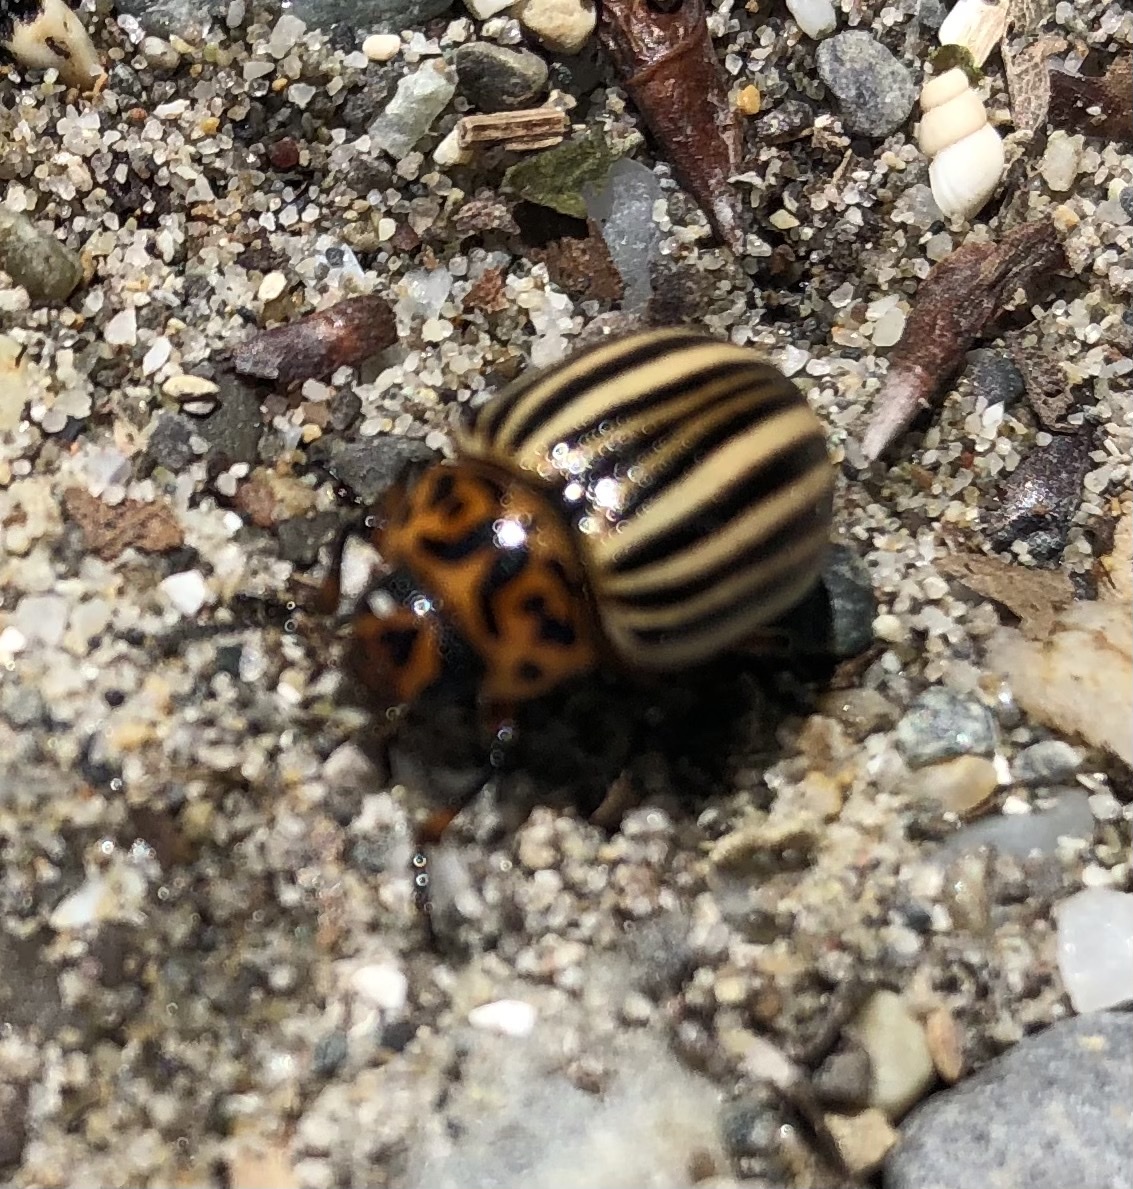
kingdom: Animalia
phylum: Arthropoda
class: Insecta
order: Coleoptera
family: Chrysomelidae
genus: Leptinotarsa
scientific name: Leptinotarsa decemlineata
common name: Colorado potato beetle
